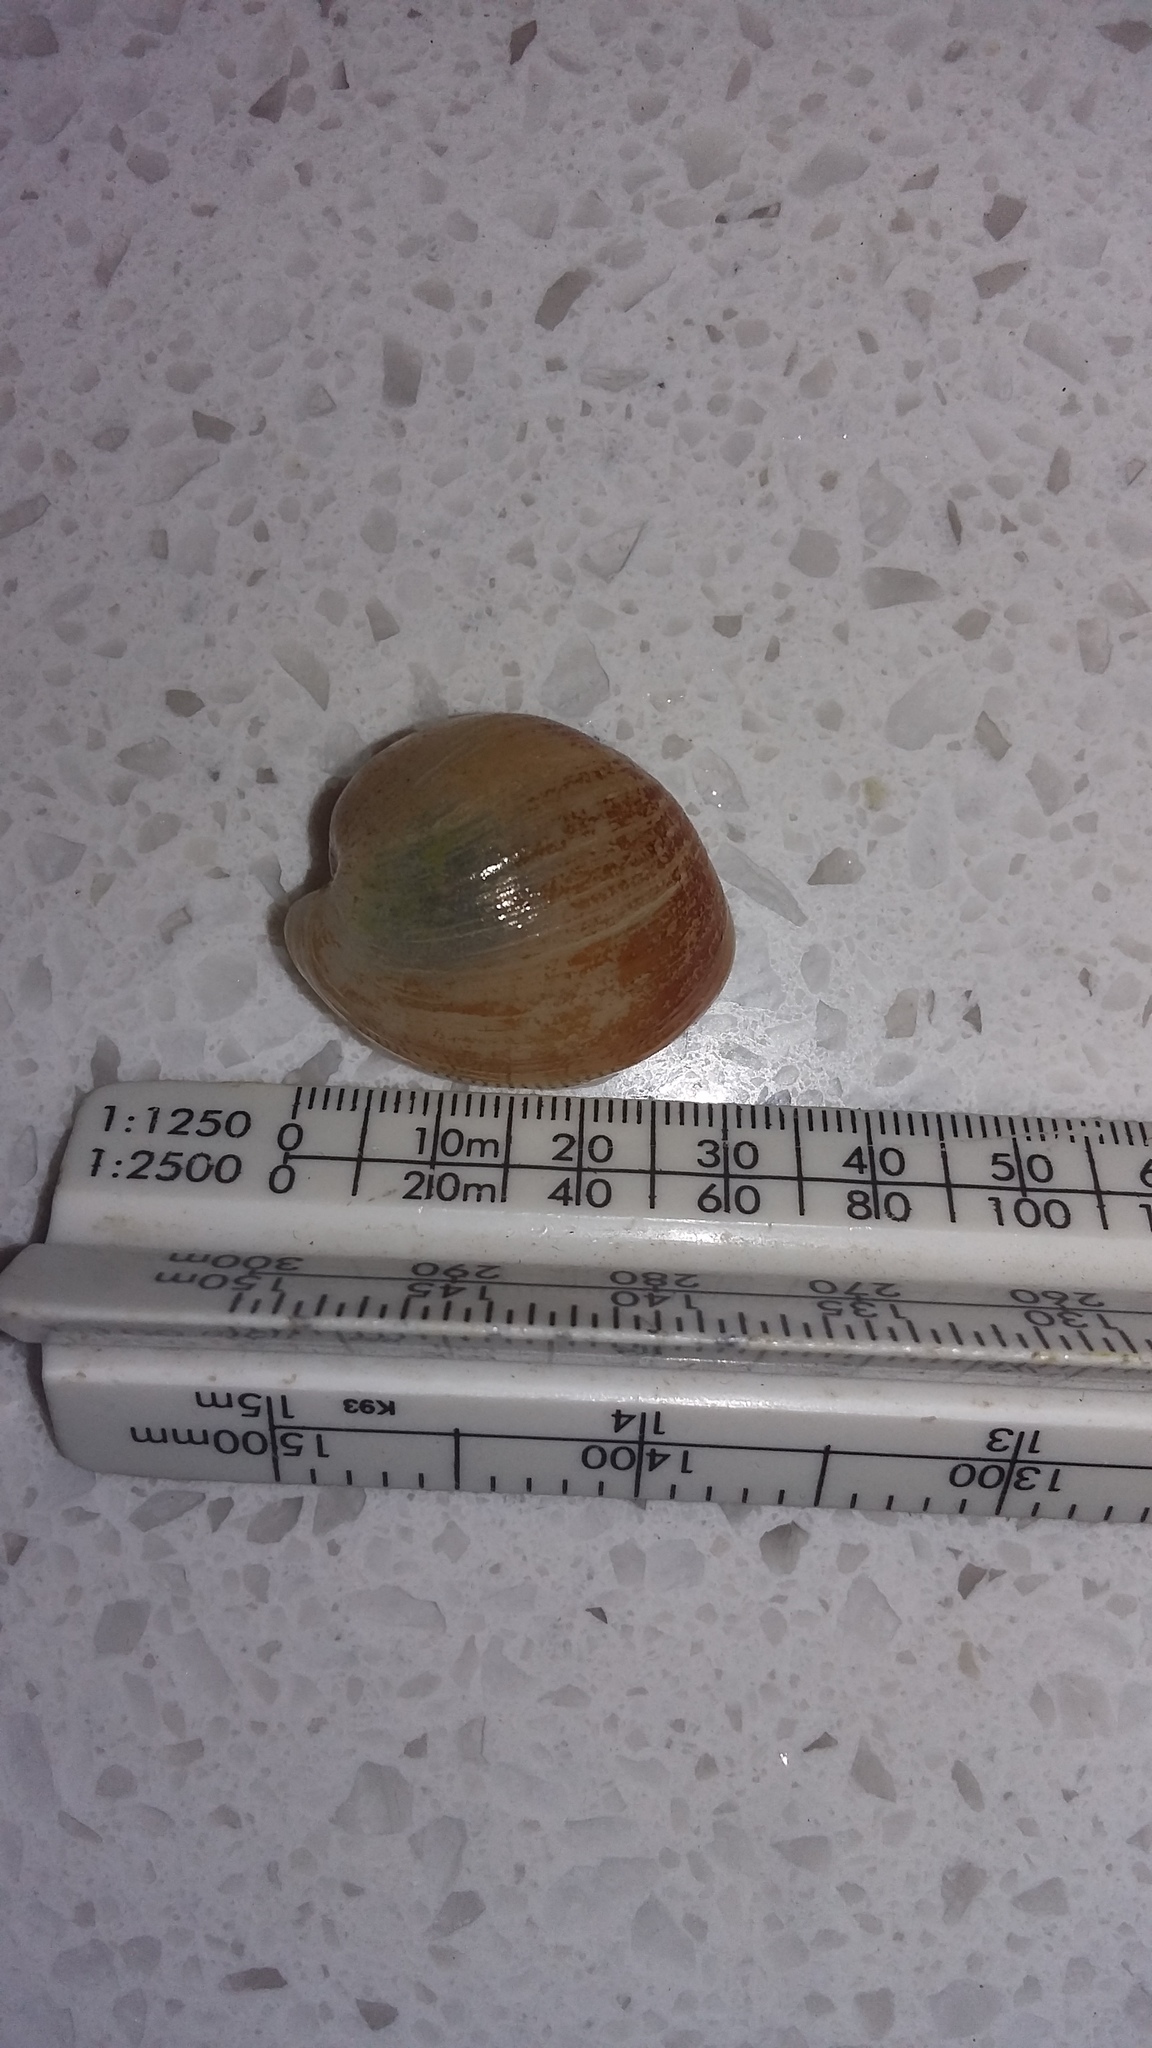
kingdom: Animalia
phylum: Mollusca
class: Gastropoda
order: Cephalaspidea
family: Haminoeidae
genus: Papawera
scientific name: Papawera zelandiae
